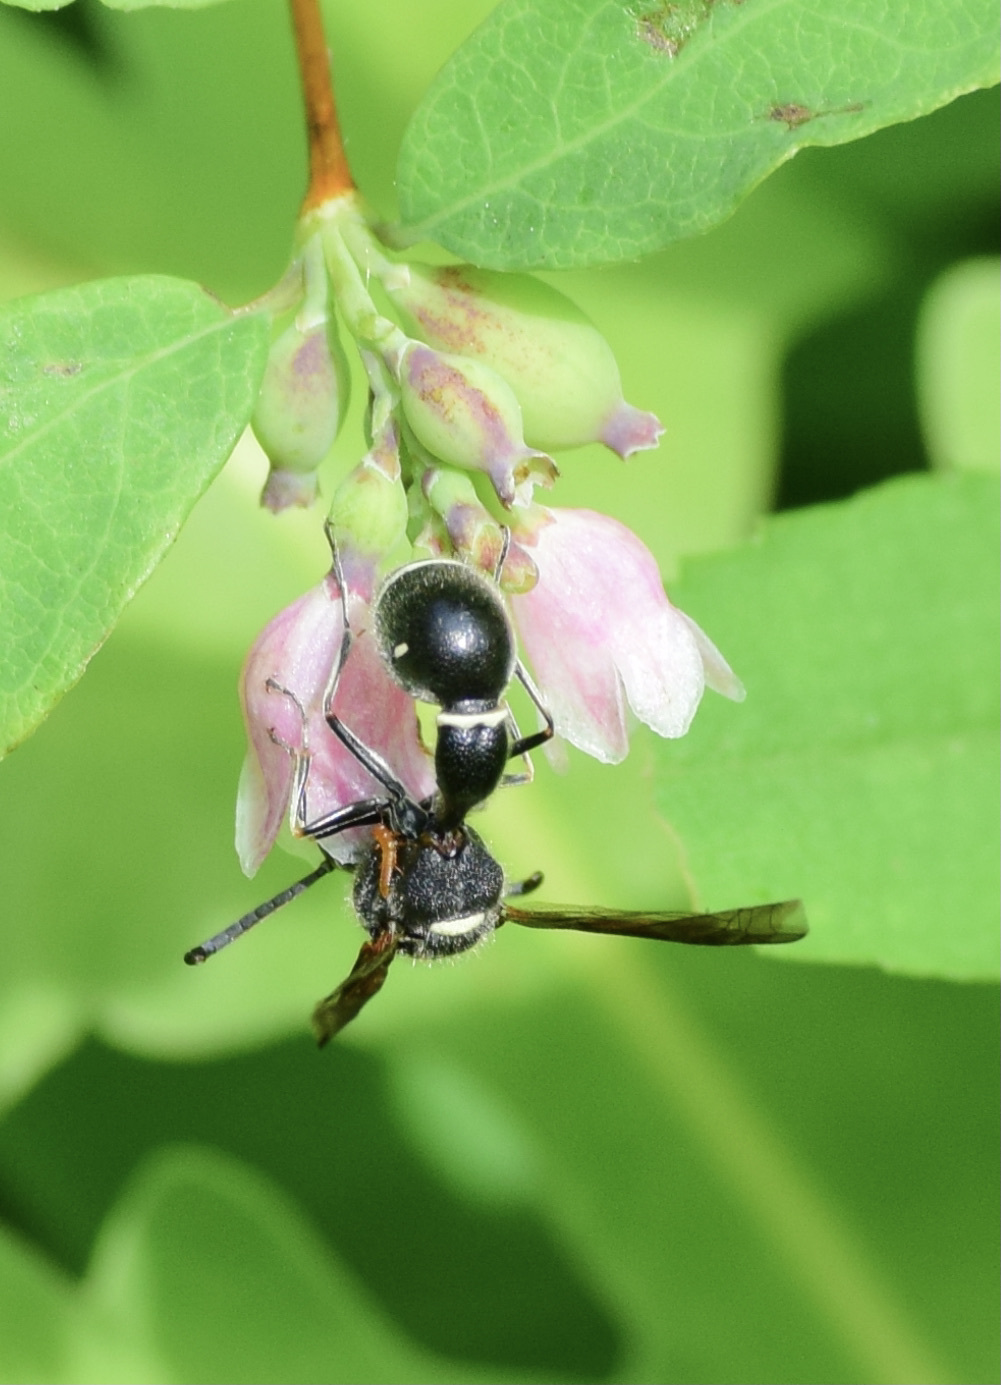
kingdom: Animalia
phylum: Arthropoda
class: Insecta
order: Hymenoptera
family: Vespidae
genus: Eumenes
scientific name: Eumenes fraternus
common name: Fraternal potter wasp
